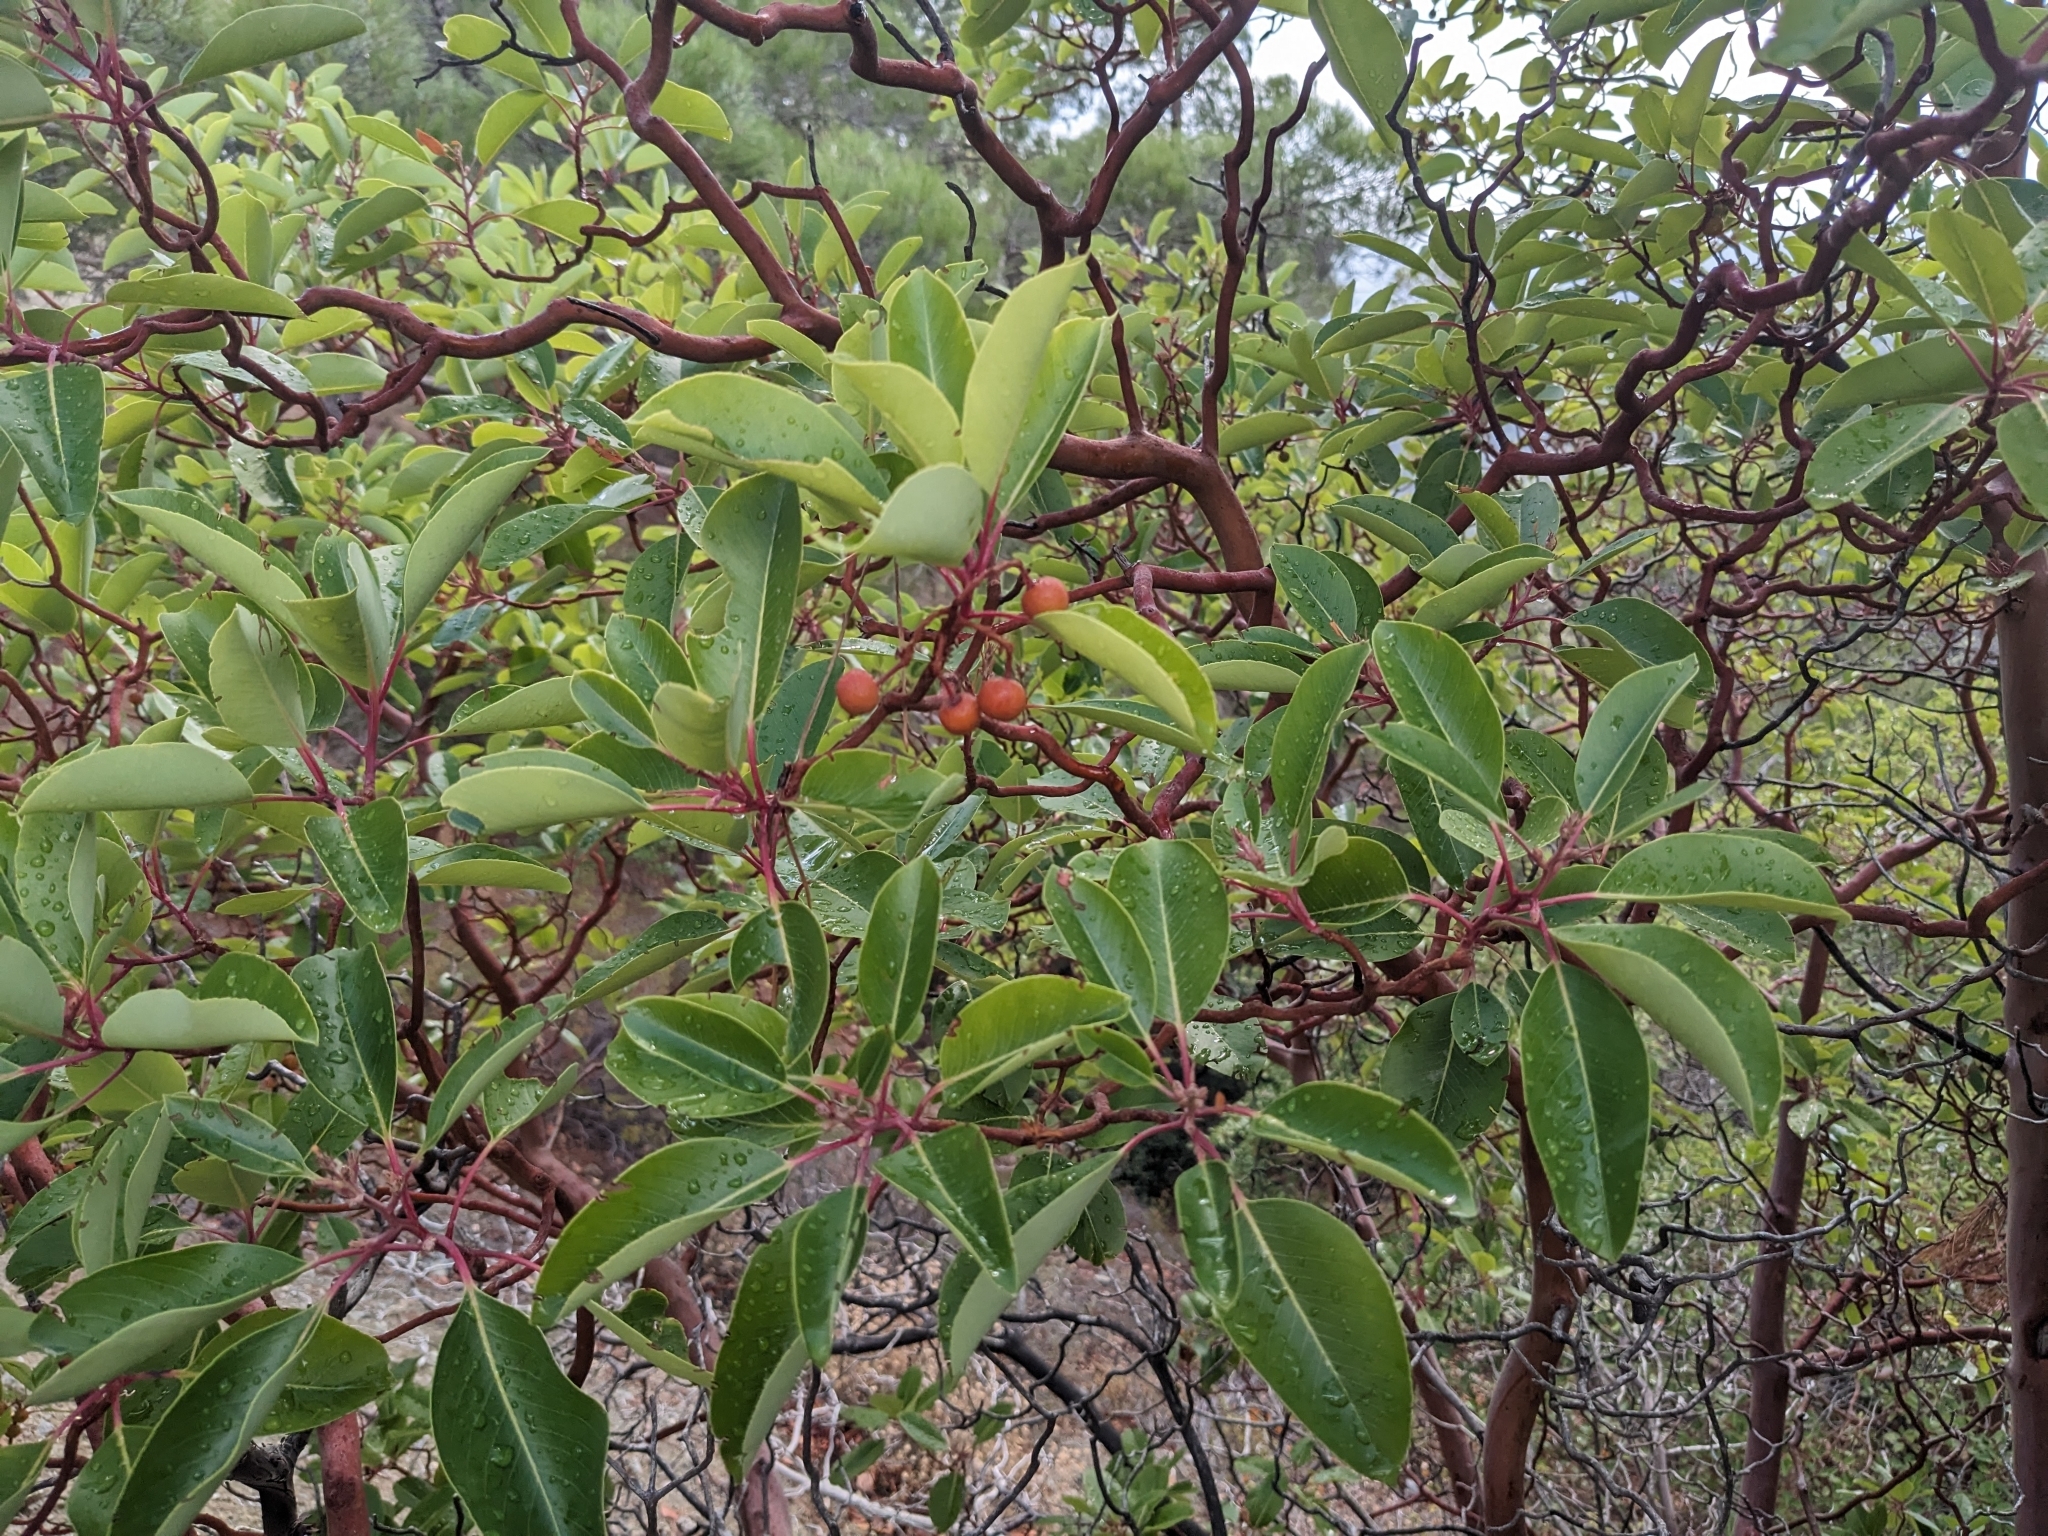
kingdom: Plantae
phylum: Tracheophyta
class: Magnoliopsida
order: Ericales
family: Ericaceae
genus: Arbutus
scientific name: Arbutus andrachne
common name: Greek strawberry tree
